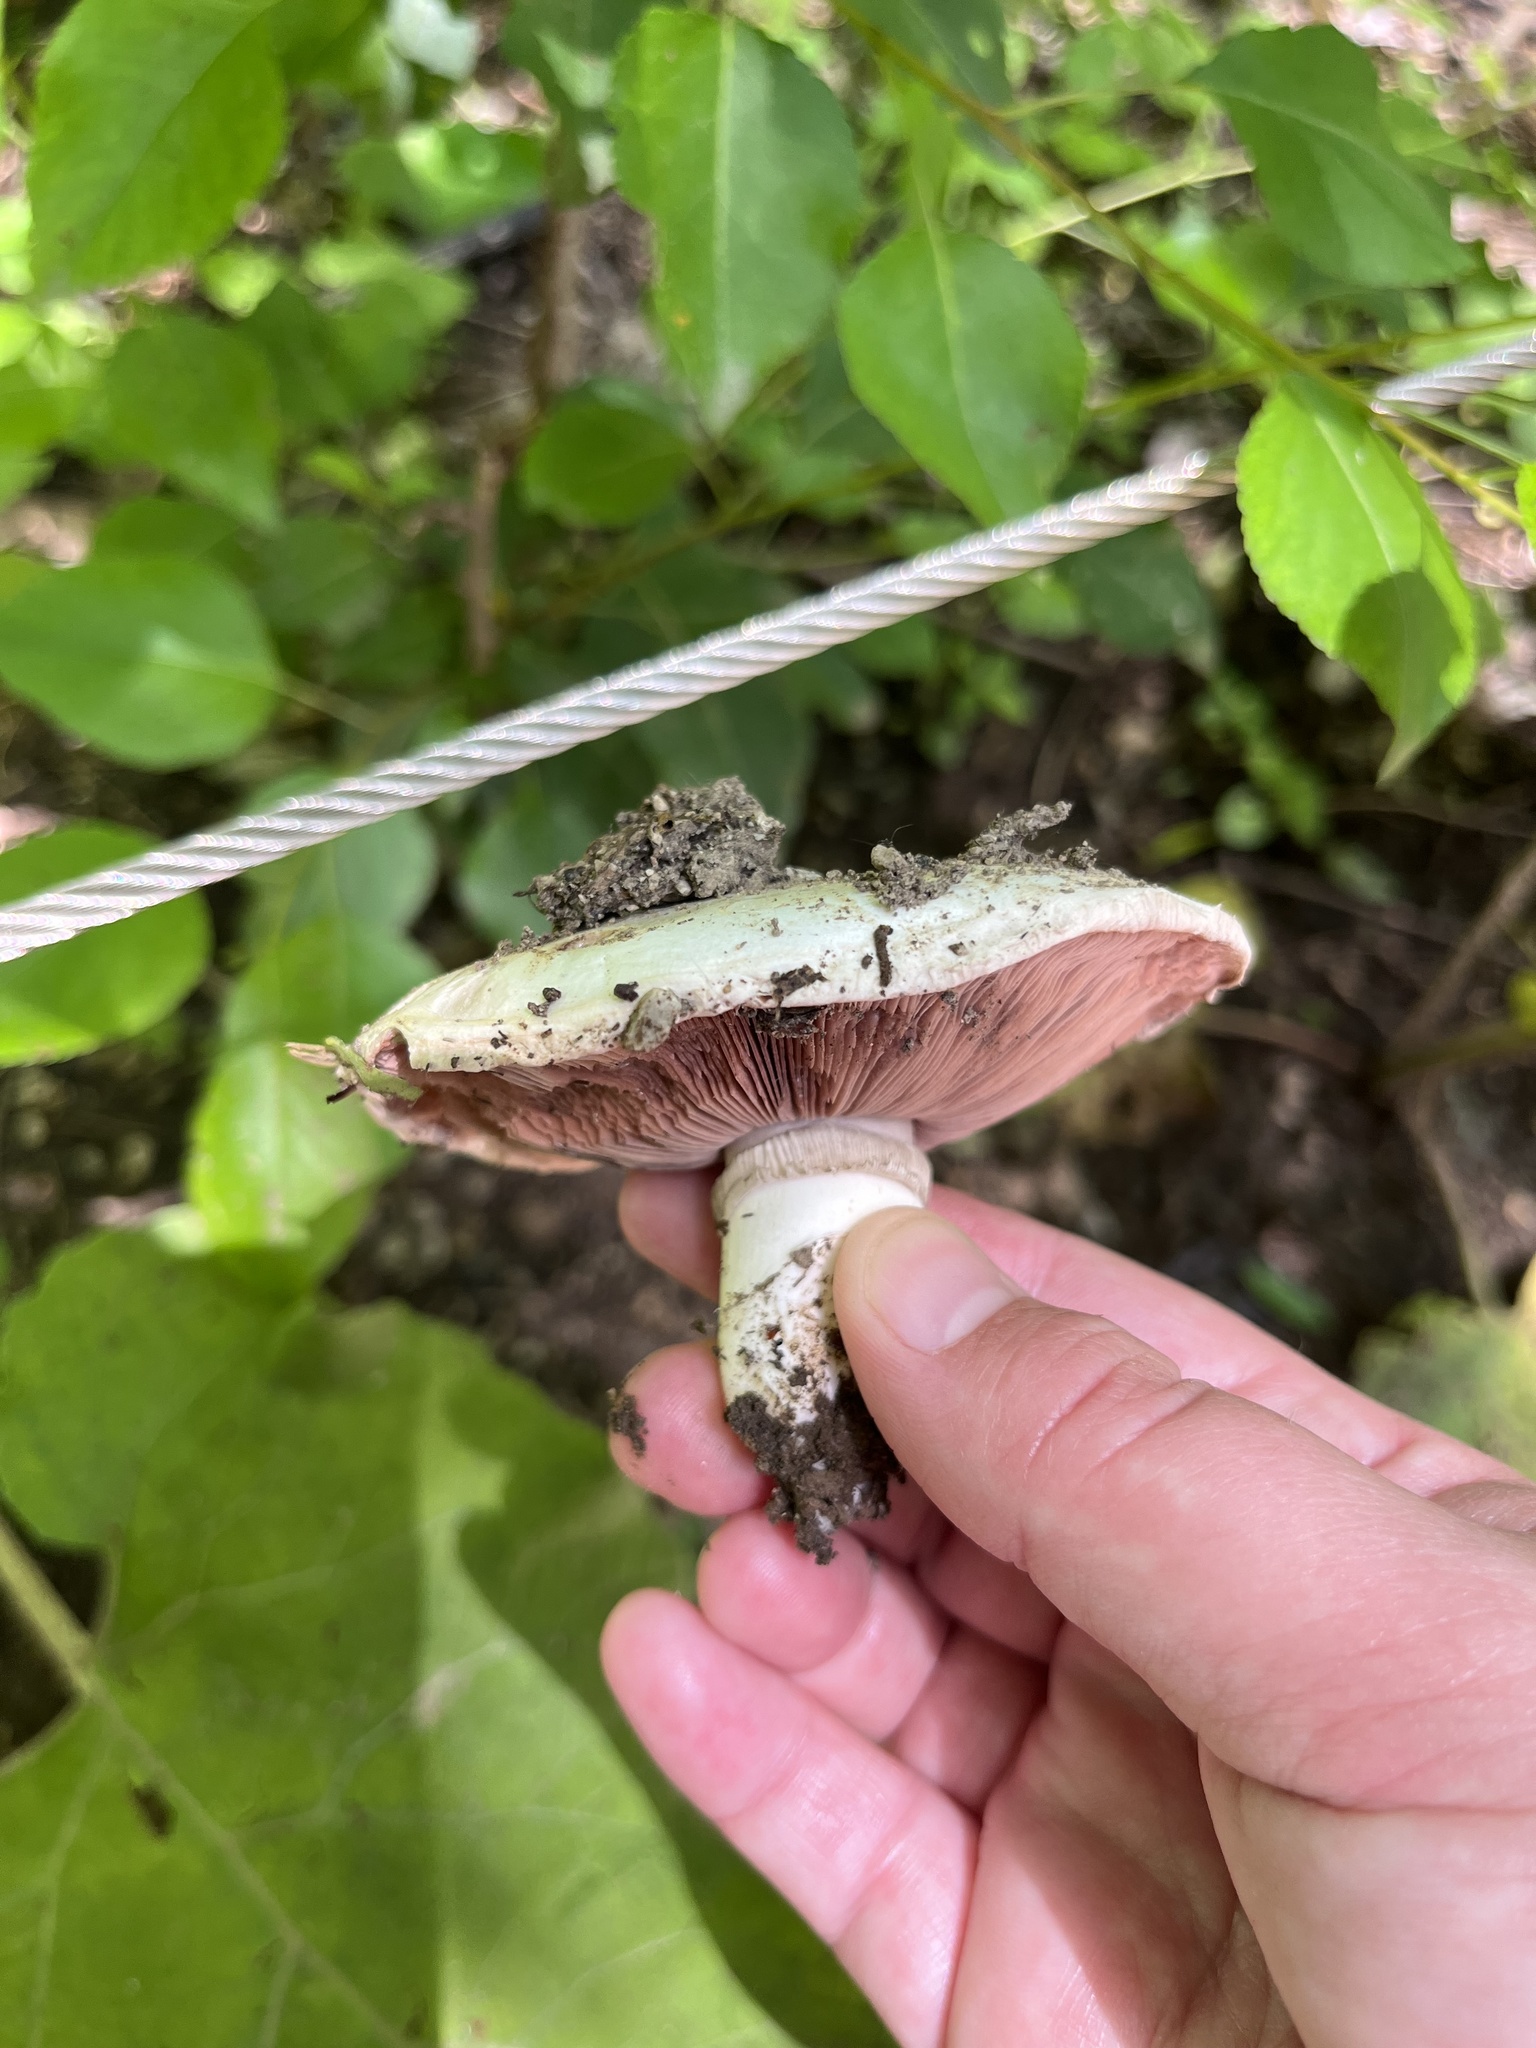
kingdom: Fungi
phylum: Basidiomycota
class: Agaricomycetes
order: Agaricales
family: Agaricaceae
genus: Agaricus
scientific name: Agaricus campestris
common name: Field mushroom
